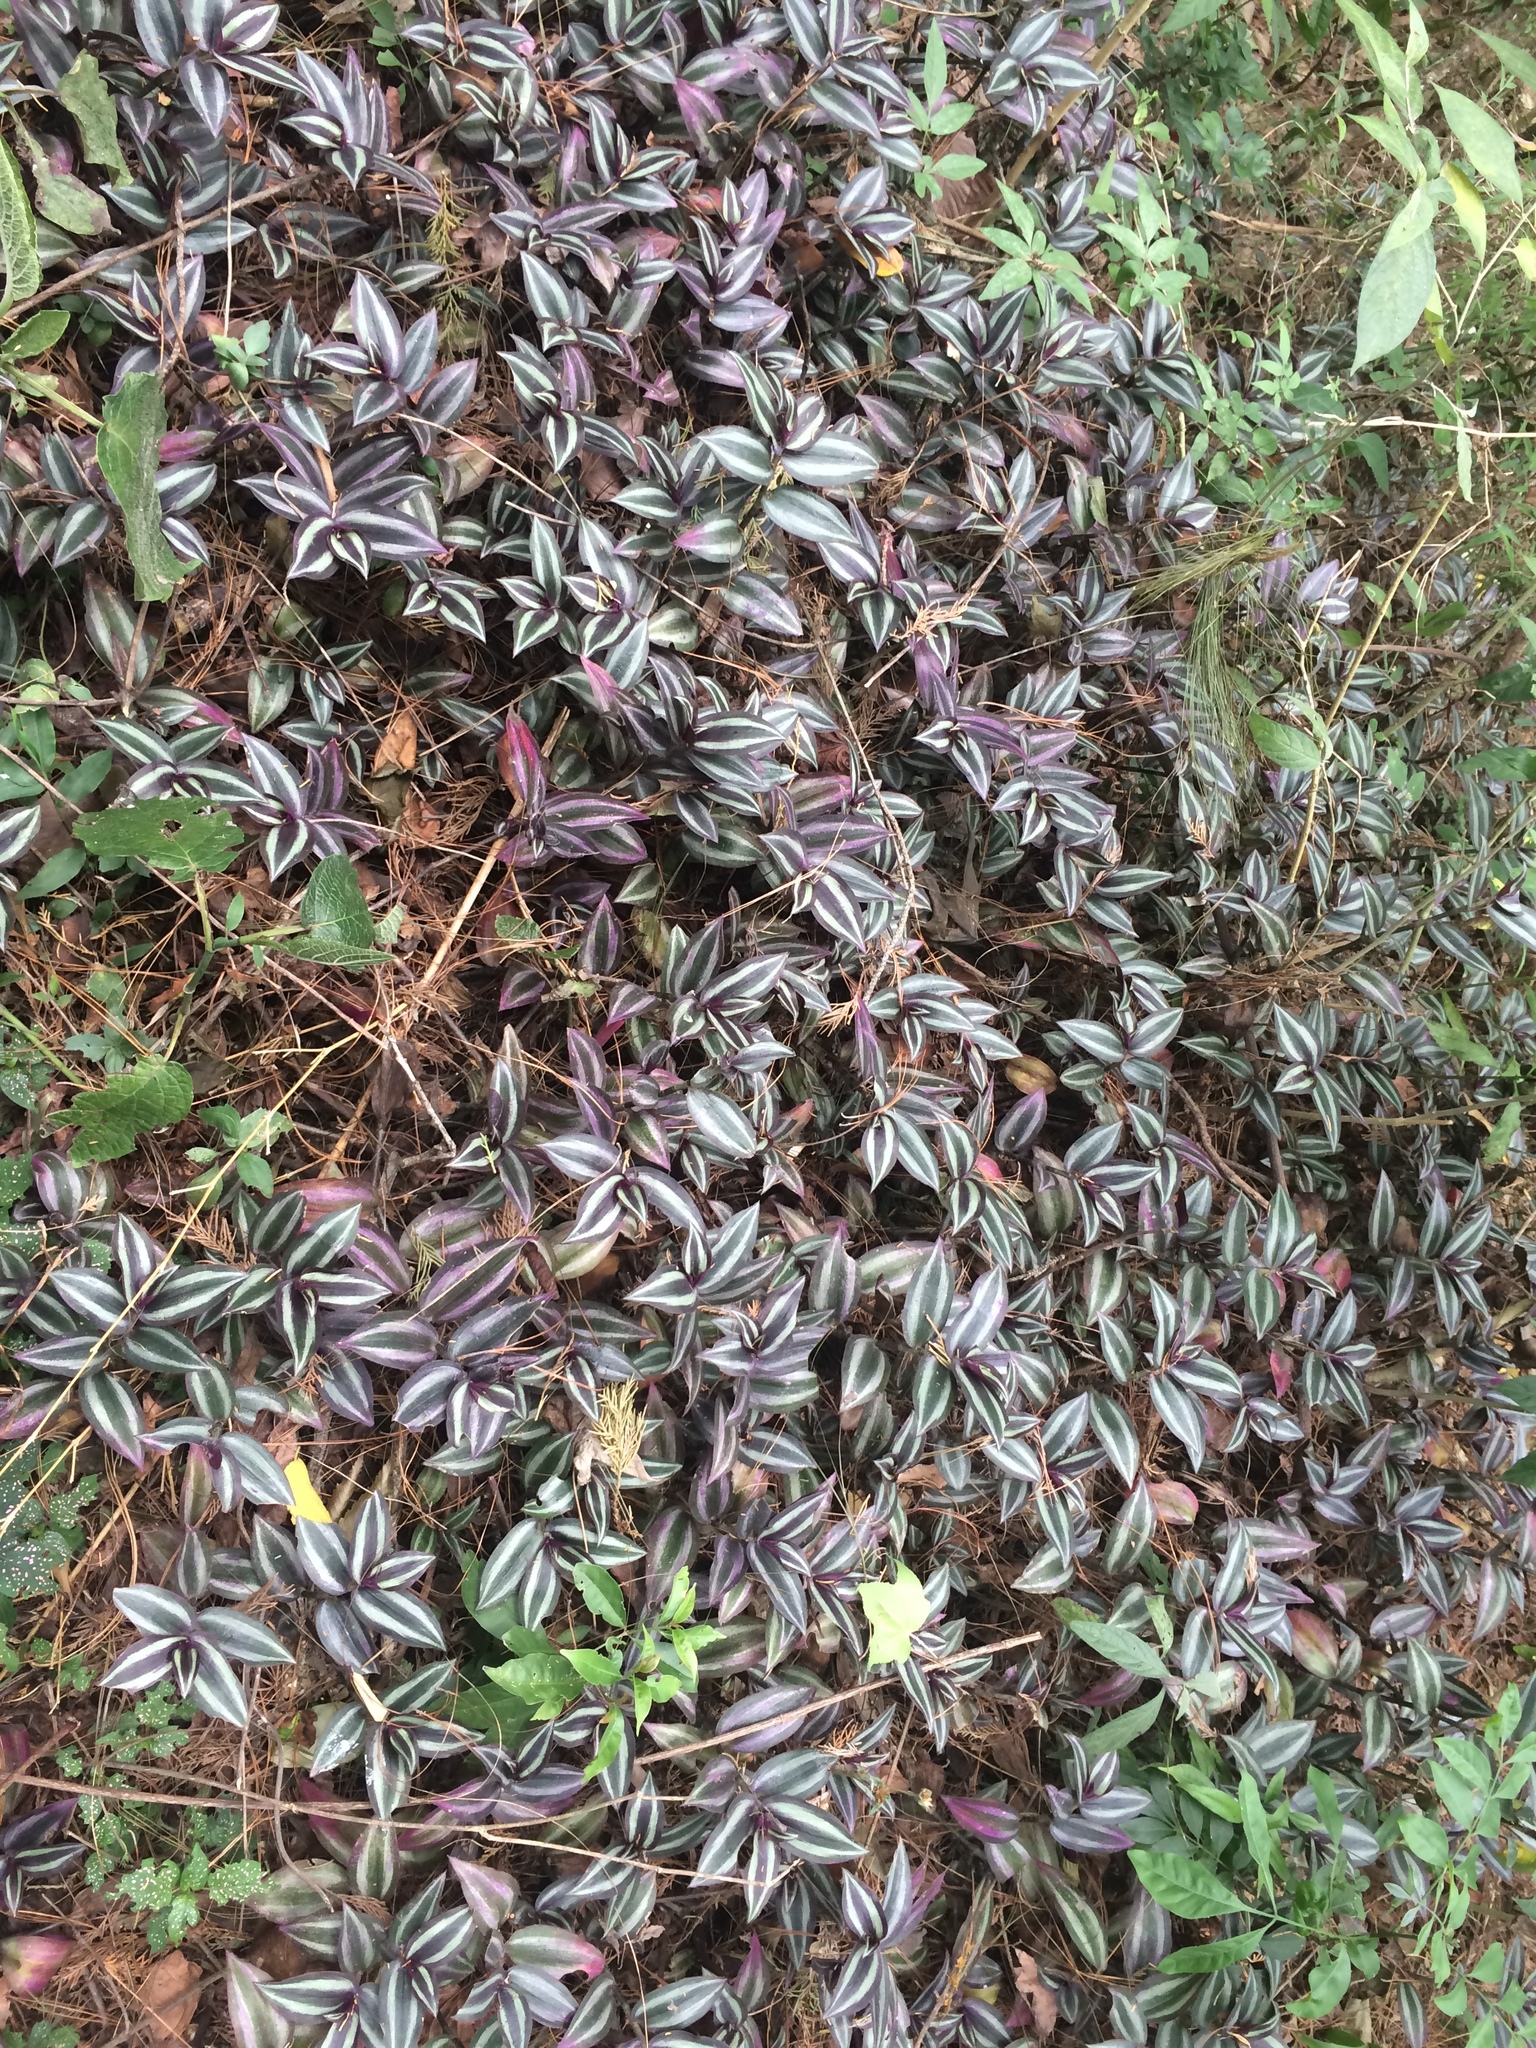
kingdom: Plantae
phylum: Tracheophyta
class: Liliopsida
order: Commelinales
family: Commelinaceae
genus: Tradescantia
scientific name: Tradescantia zebrina
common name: Inchplant
